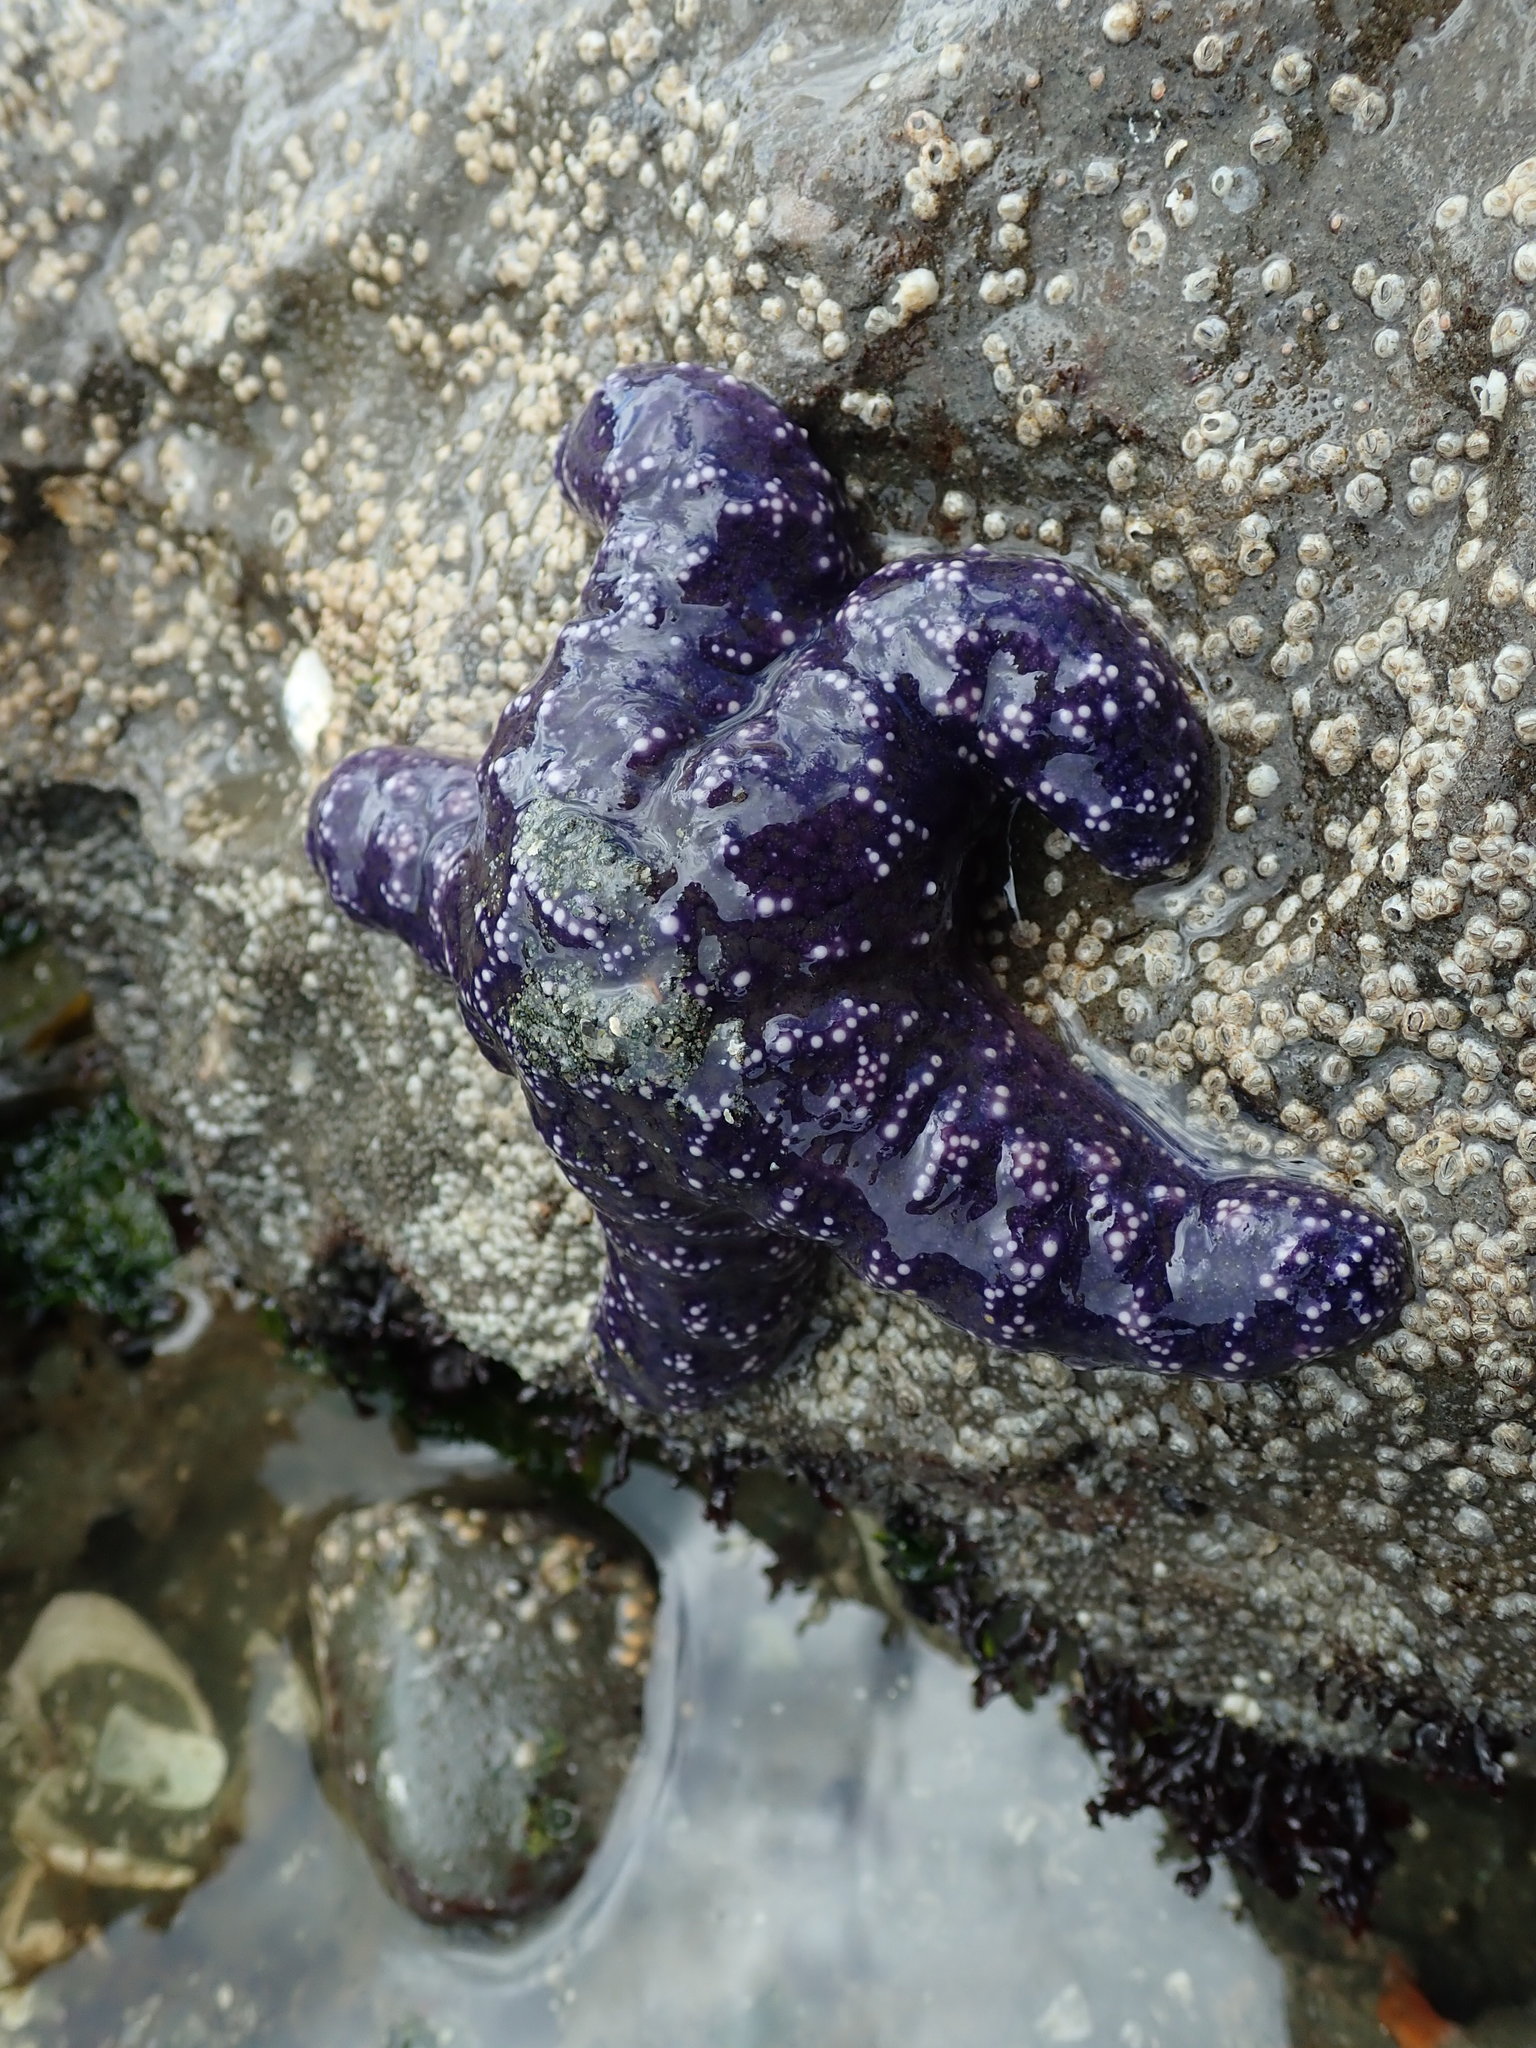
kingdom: Animalia
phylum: Echinodermata
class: Asteroidea
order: Forcipulatida
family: Asteriidae
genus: Pisaster
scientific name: Pisaster ochraceus
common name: Ochre stars
